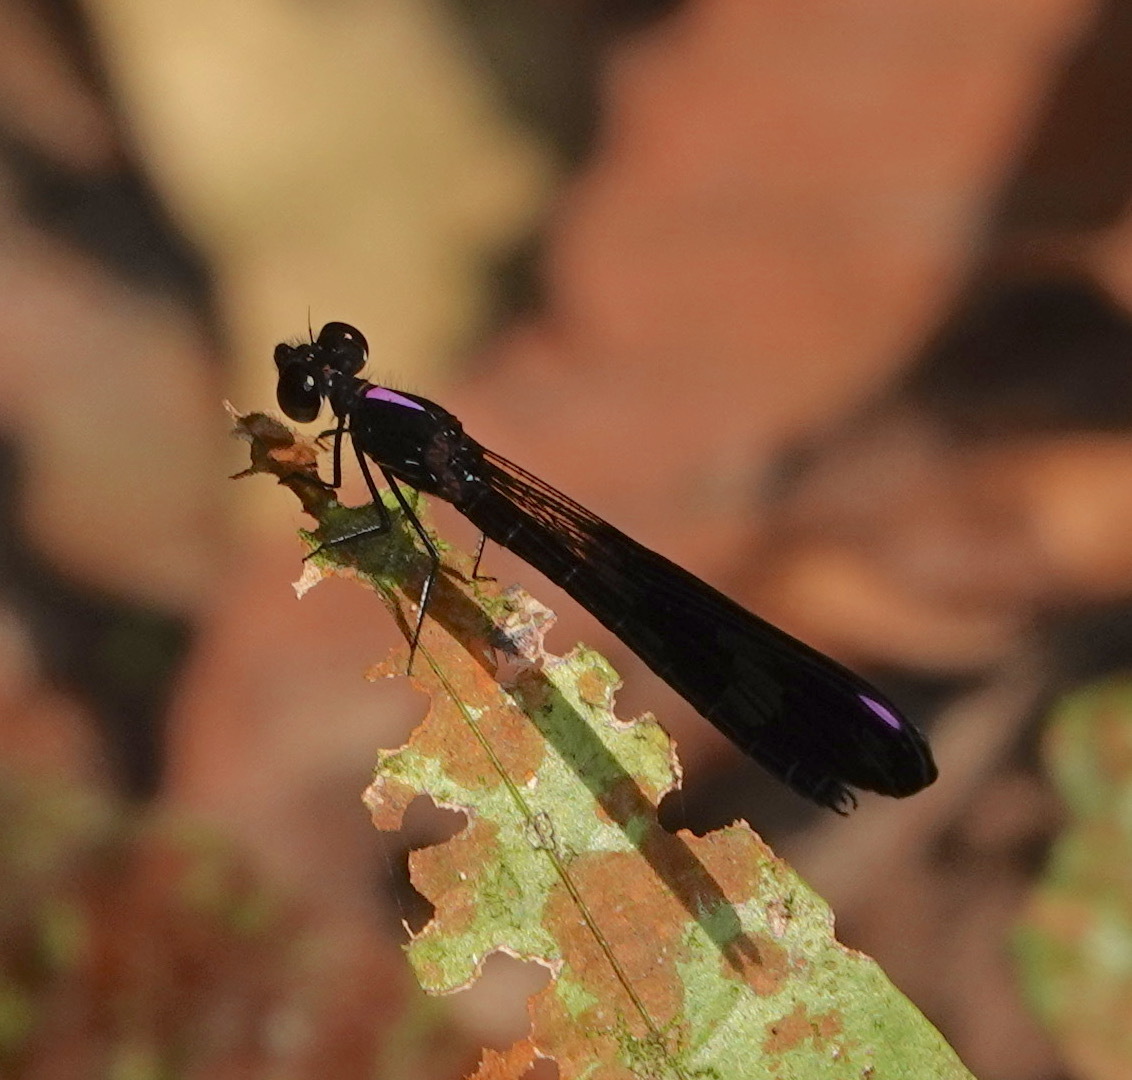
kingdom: Animalia
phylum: Arthropoda
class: Insecta
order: Odonata
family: Chlorocyphidae
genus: Aristocypha
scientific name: Aristocypha fenestrella
